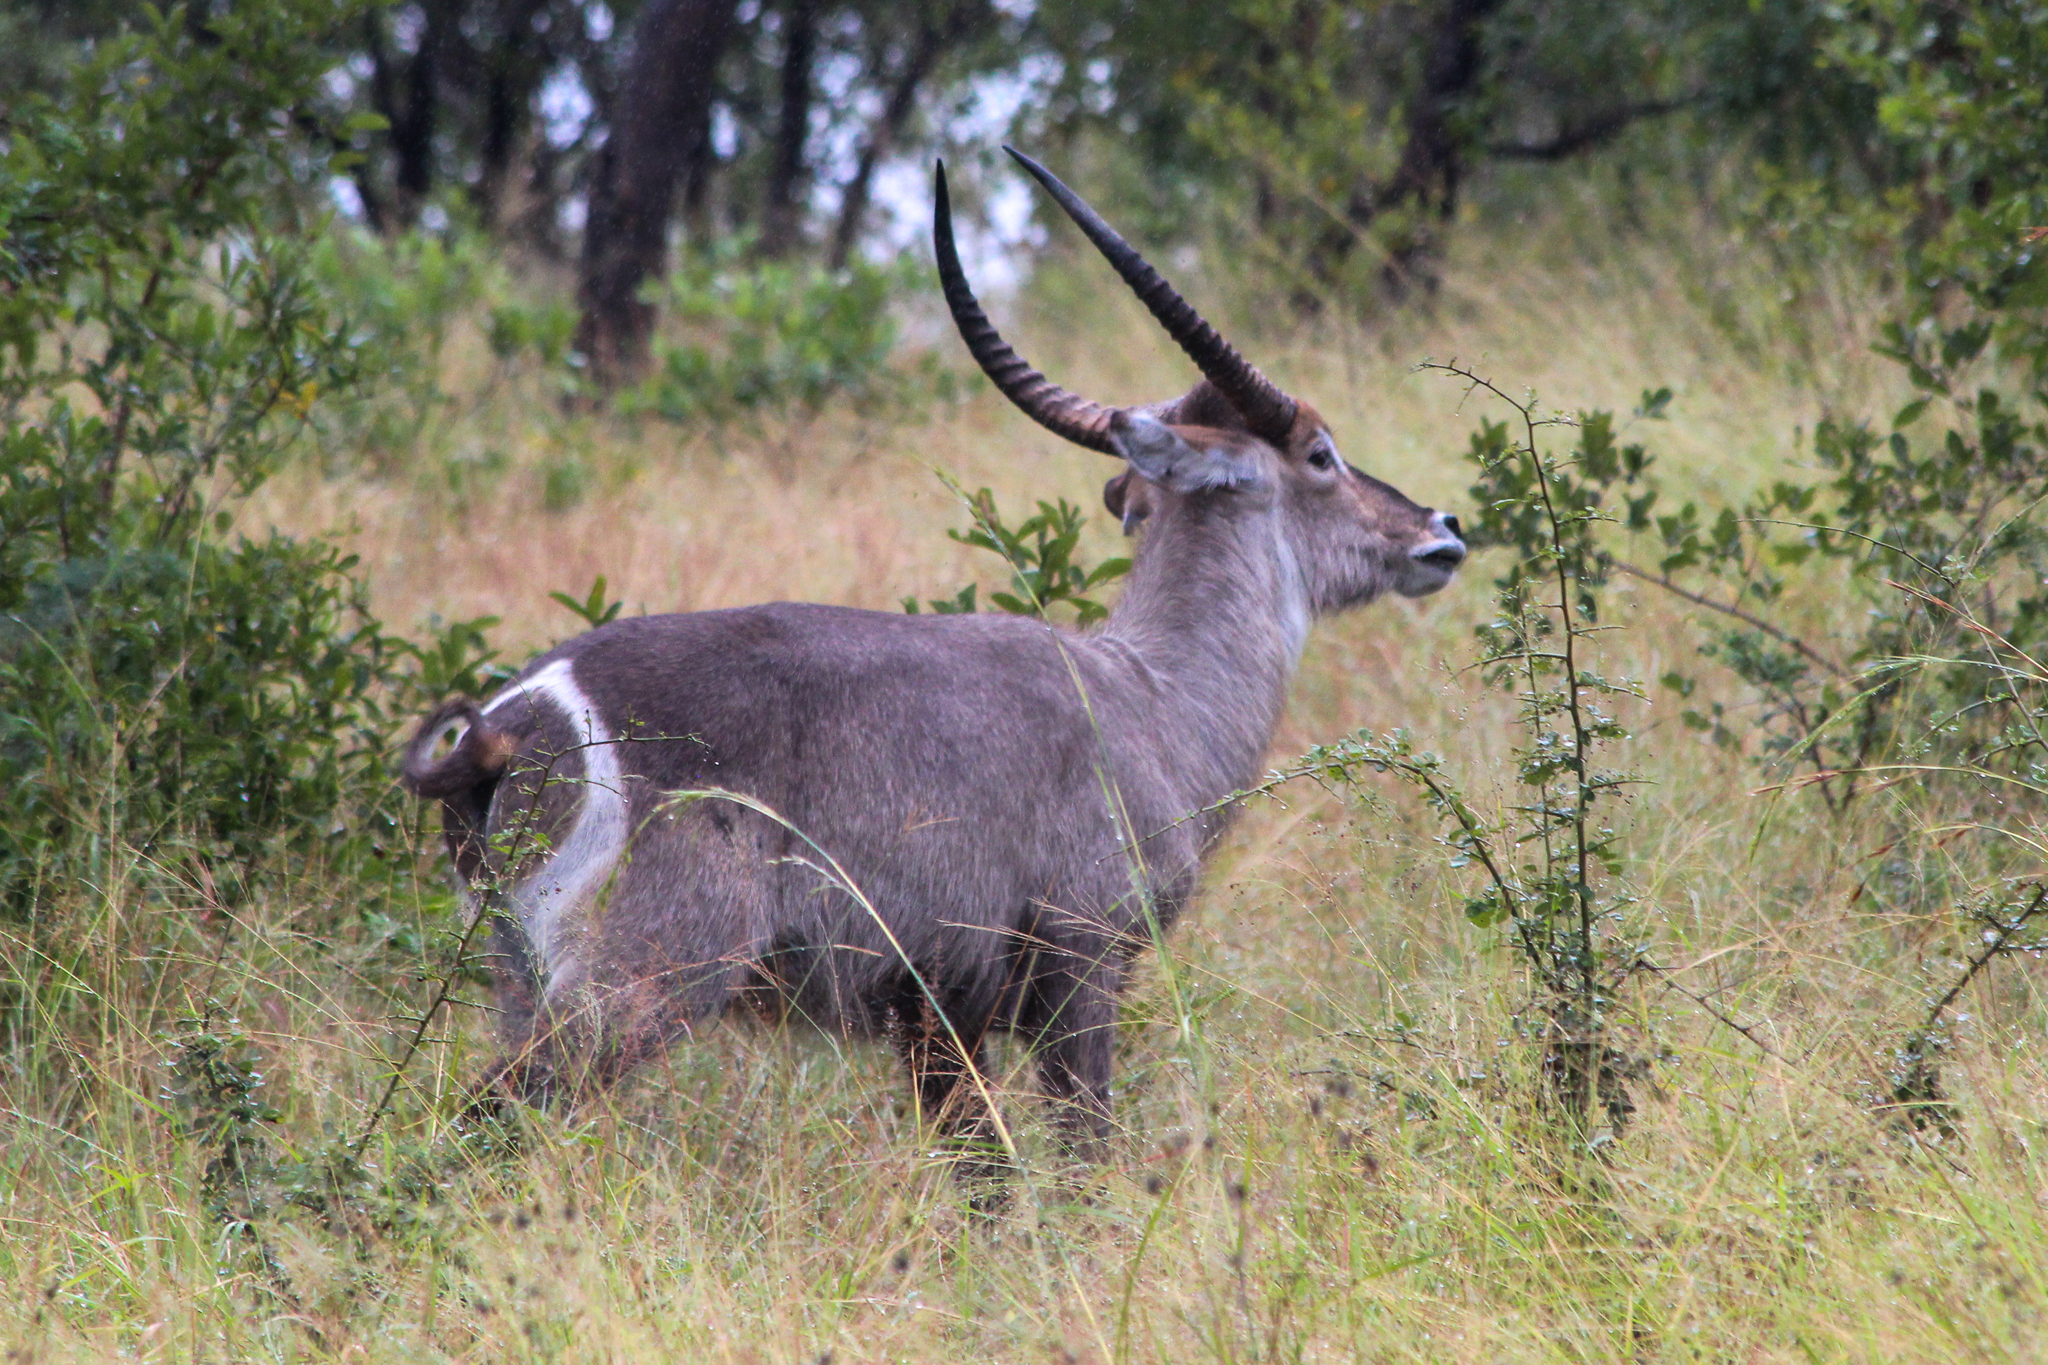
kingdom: Animalia
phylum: Chordata
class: Mammalia
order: Artiodactyla
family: Bovidae
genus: Kobus
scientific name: Kobus ellipsiprymnus
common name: Waterbuck
